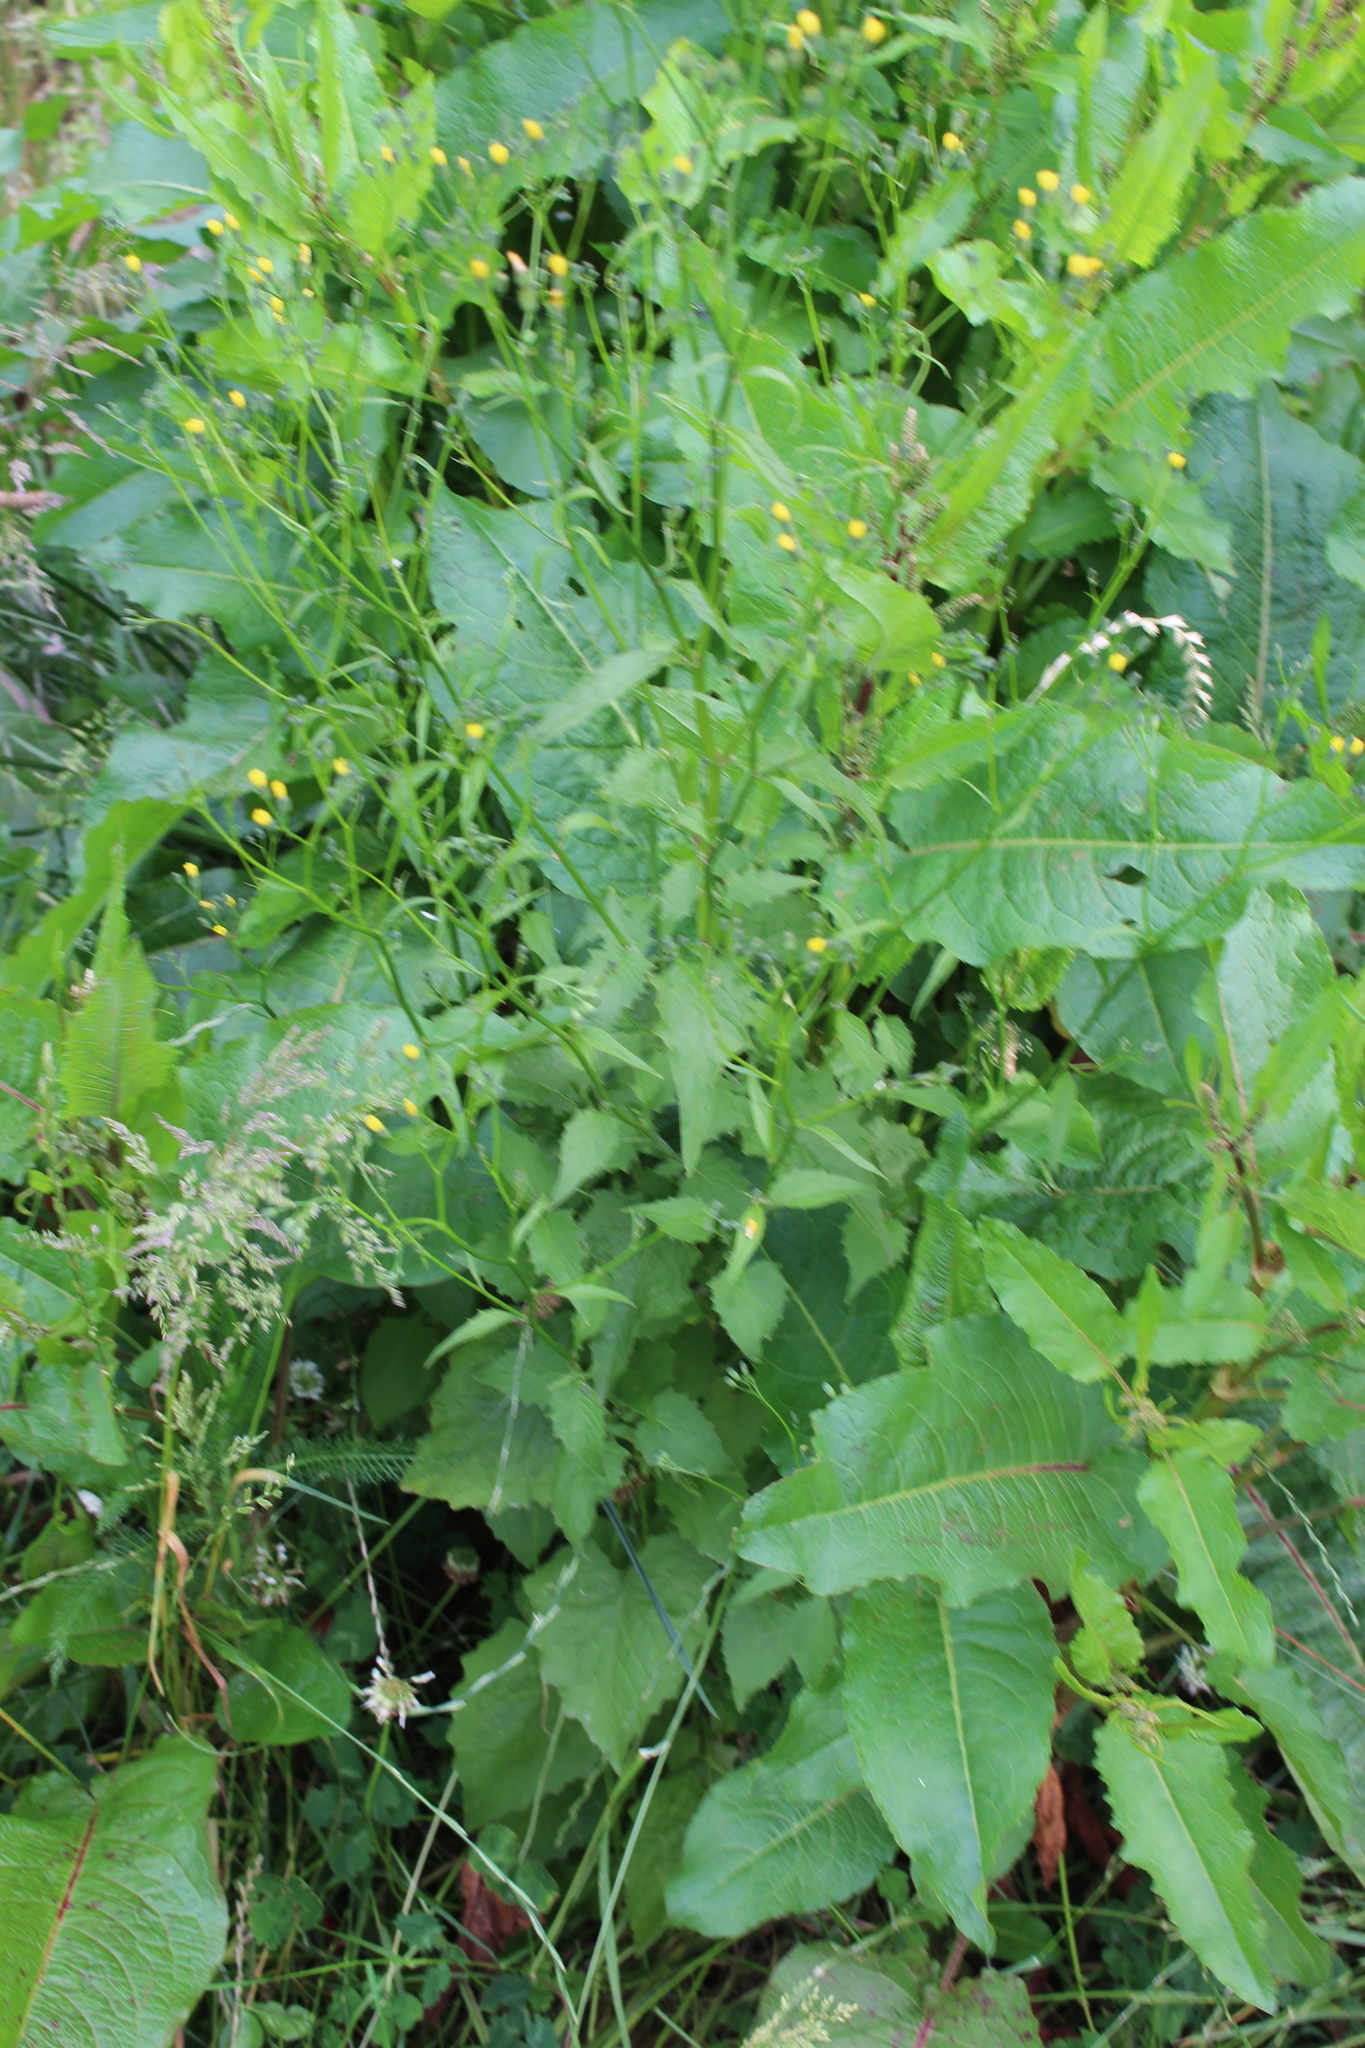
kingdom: Plantae
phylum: Tracheophyta
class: Magnoliopsida
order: Asterales
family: Asteraceae
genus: Lapsana
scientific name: Lapsana communis
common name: Nipplewort
